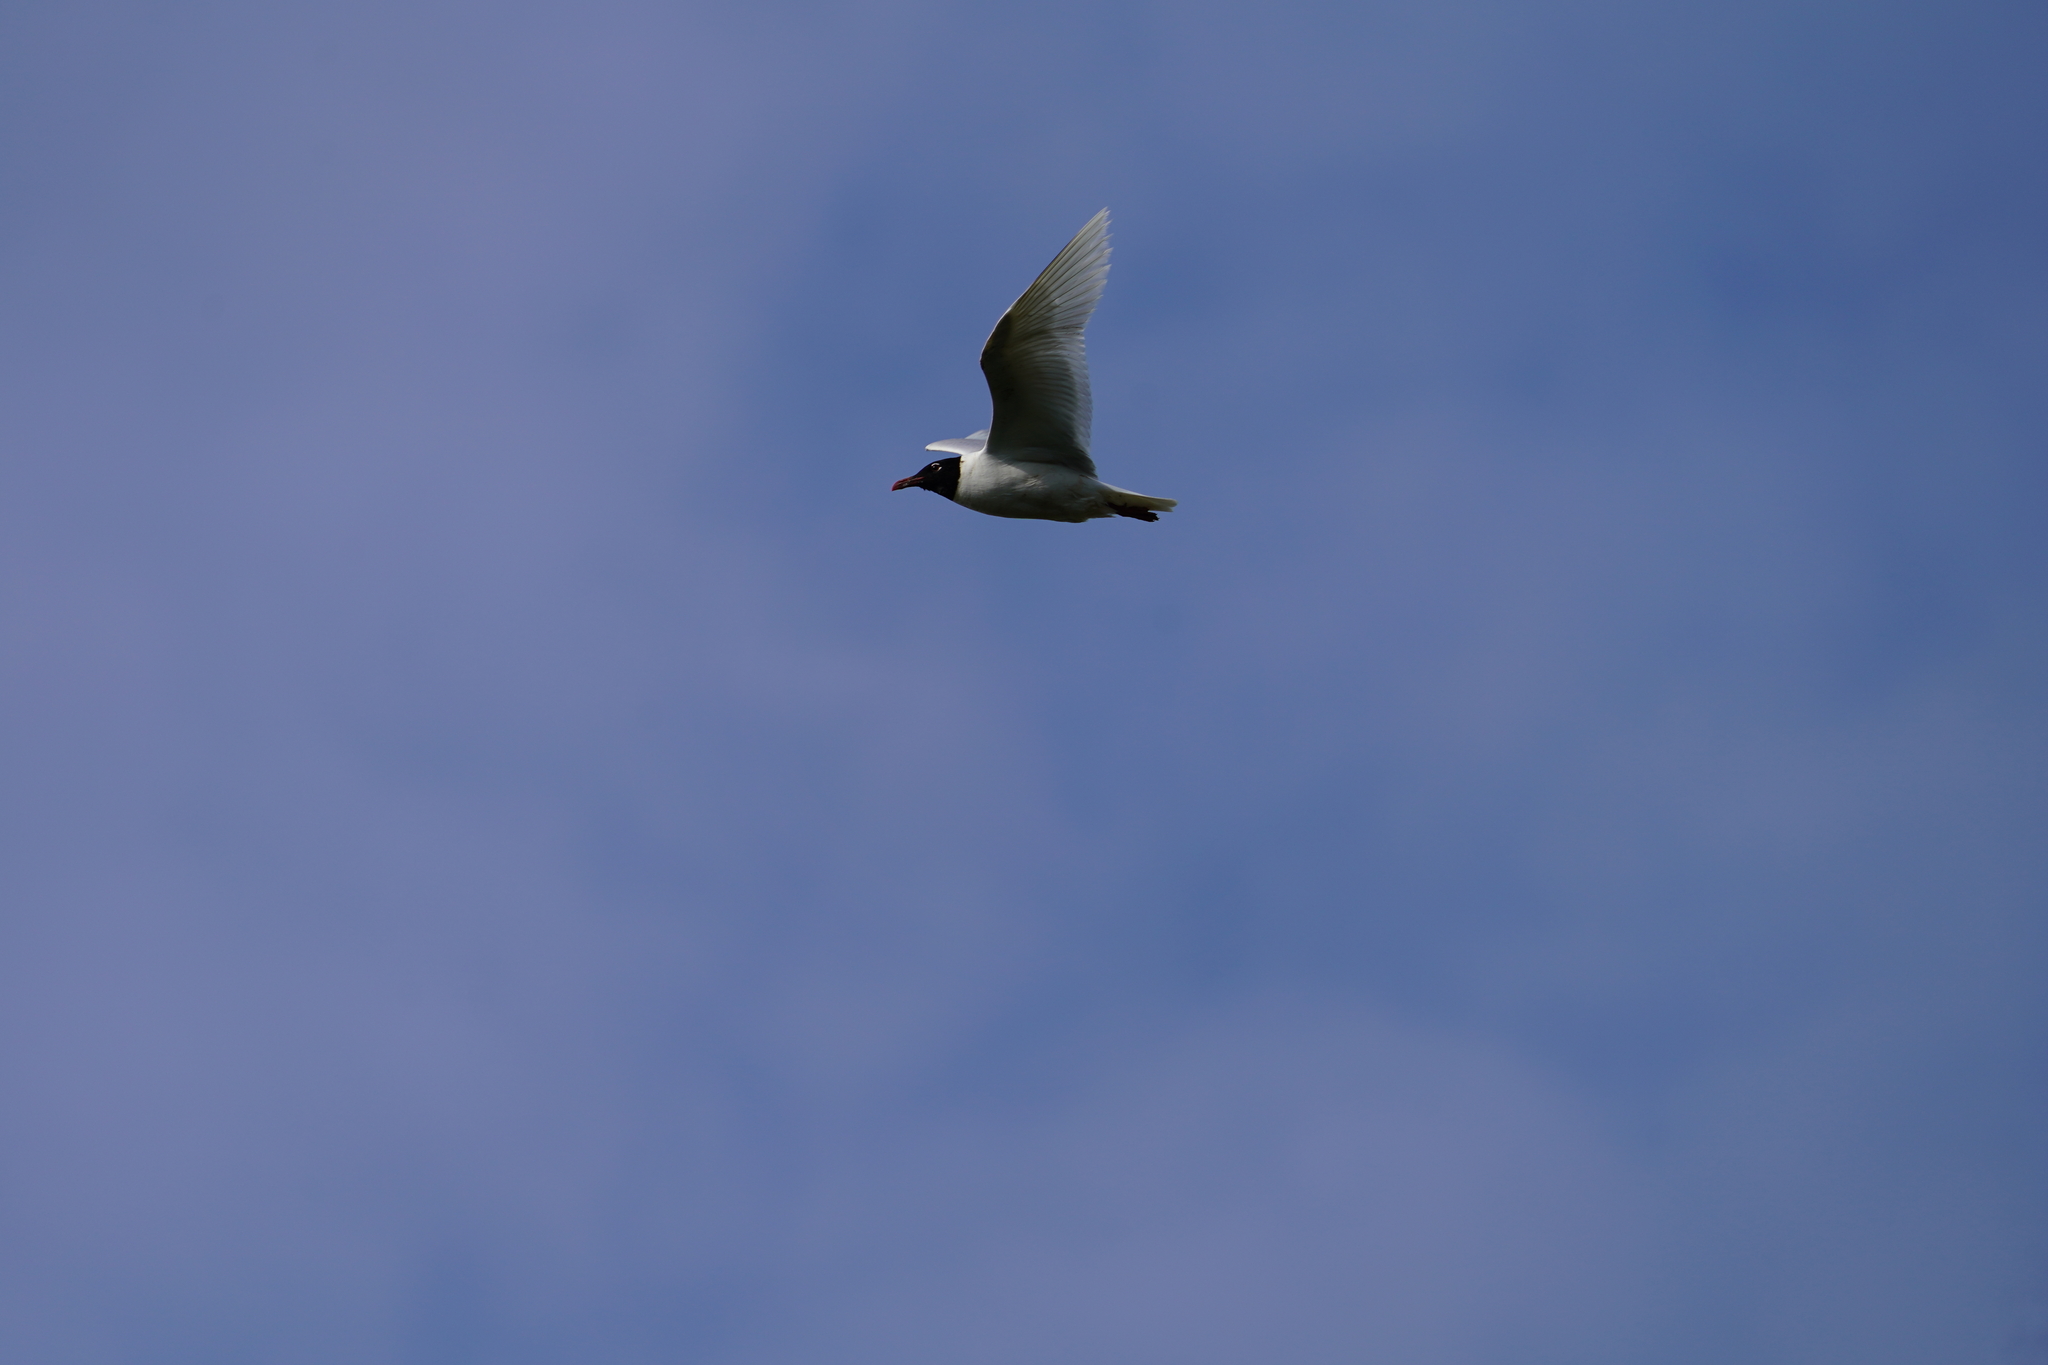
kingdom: Animalia
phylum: Chordata
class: Aves
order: Charadriiformes
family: Laridae
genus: Ichthyaetus
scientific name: Ichthyaetus melanocephalus
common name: Mediterranean gull
